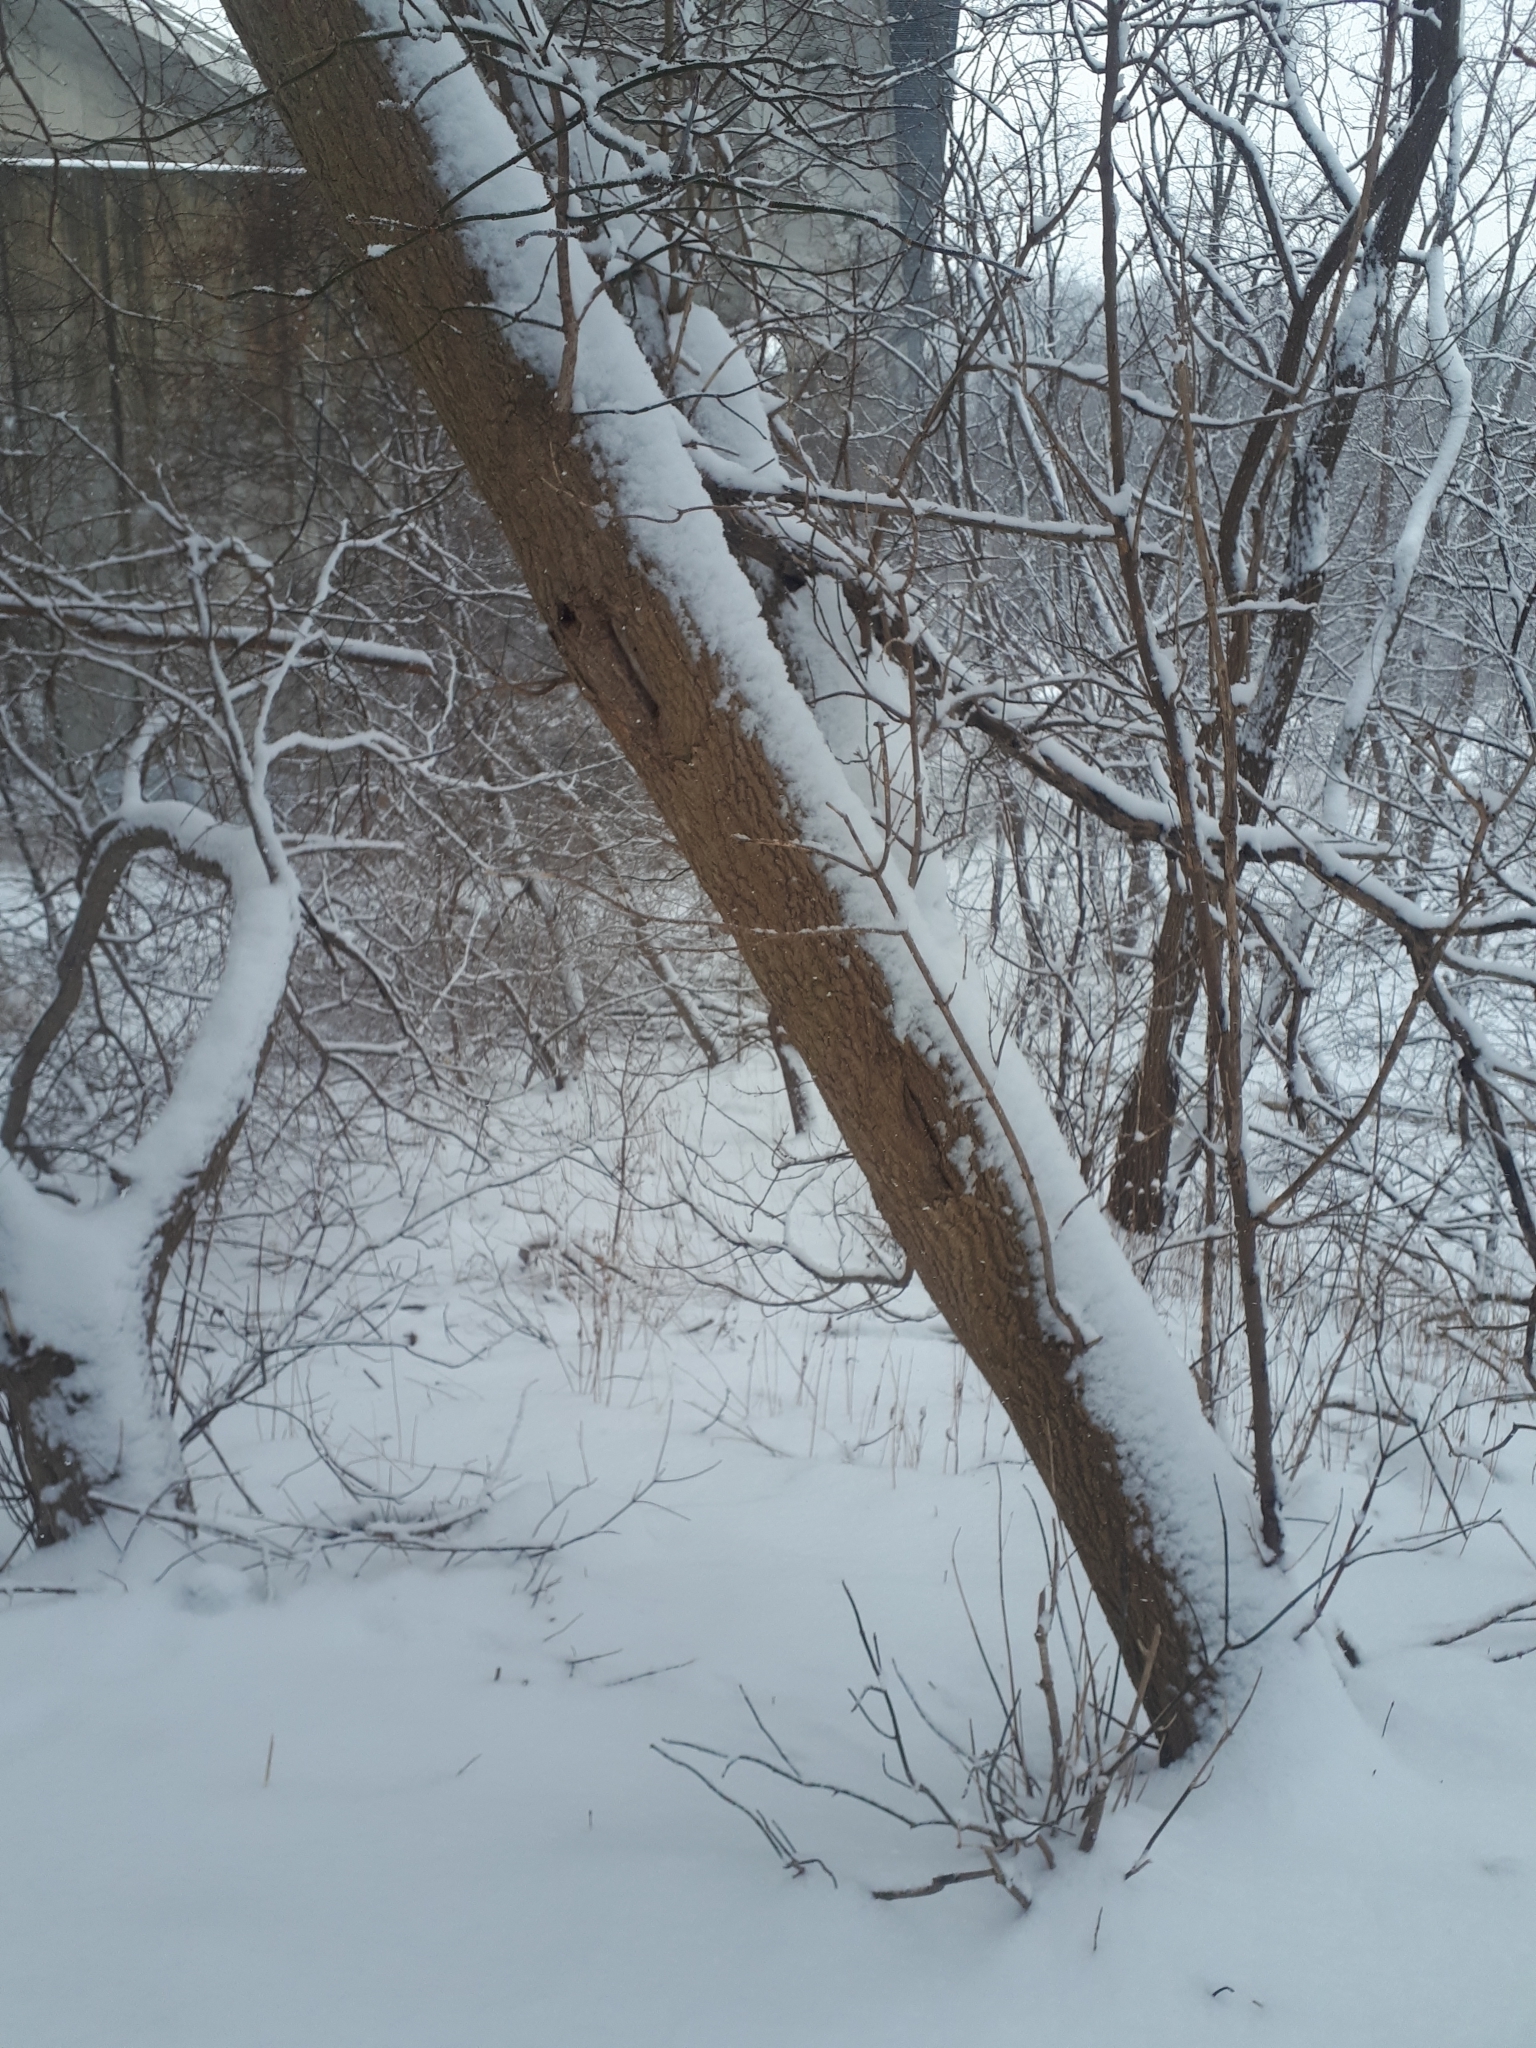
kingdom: Plantae
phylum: Tracheophyta
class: Magnoliopsida
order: Sapindales
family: Sapindaceae
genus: Acer
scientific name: Acer negundo
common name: Ashleaf maple
